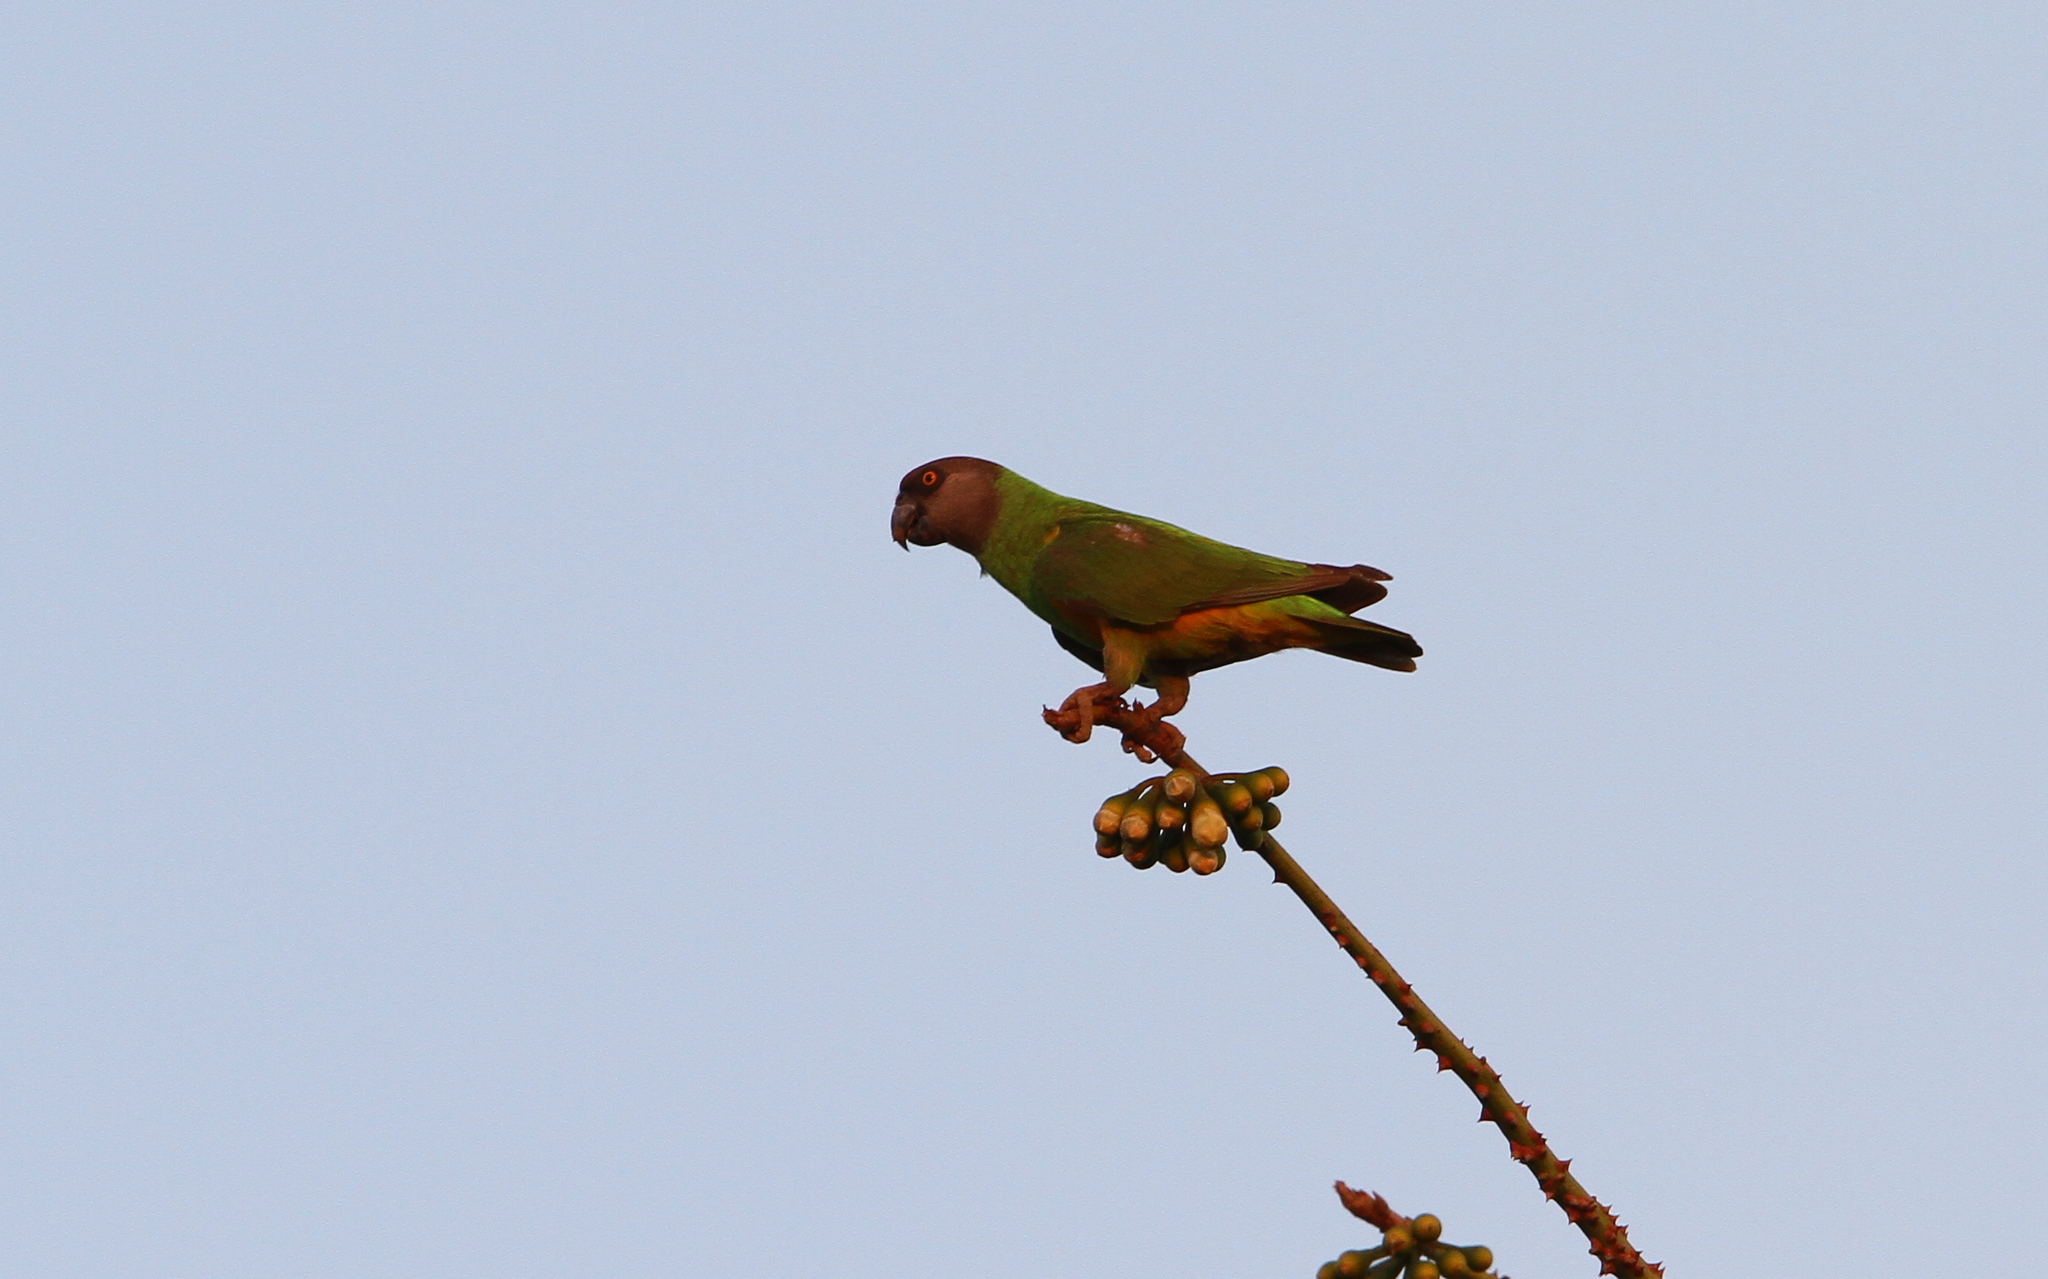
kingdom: Animalia
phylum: Chordata
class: Aves
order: Psittaciformes
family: Psittacidae
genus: Poicephalus
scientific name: Poicephalus senegalus
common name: Senegal parrot
